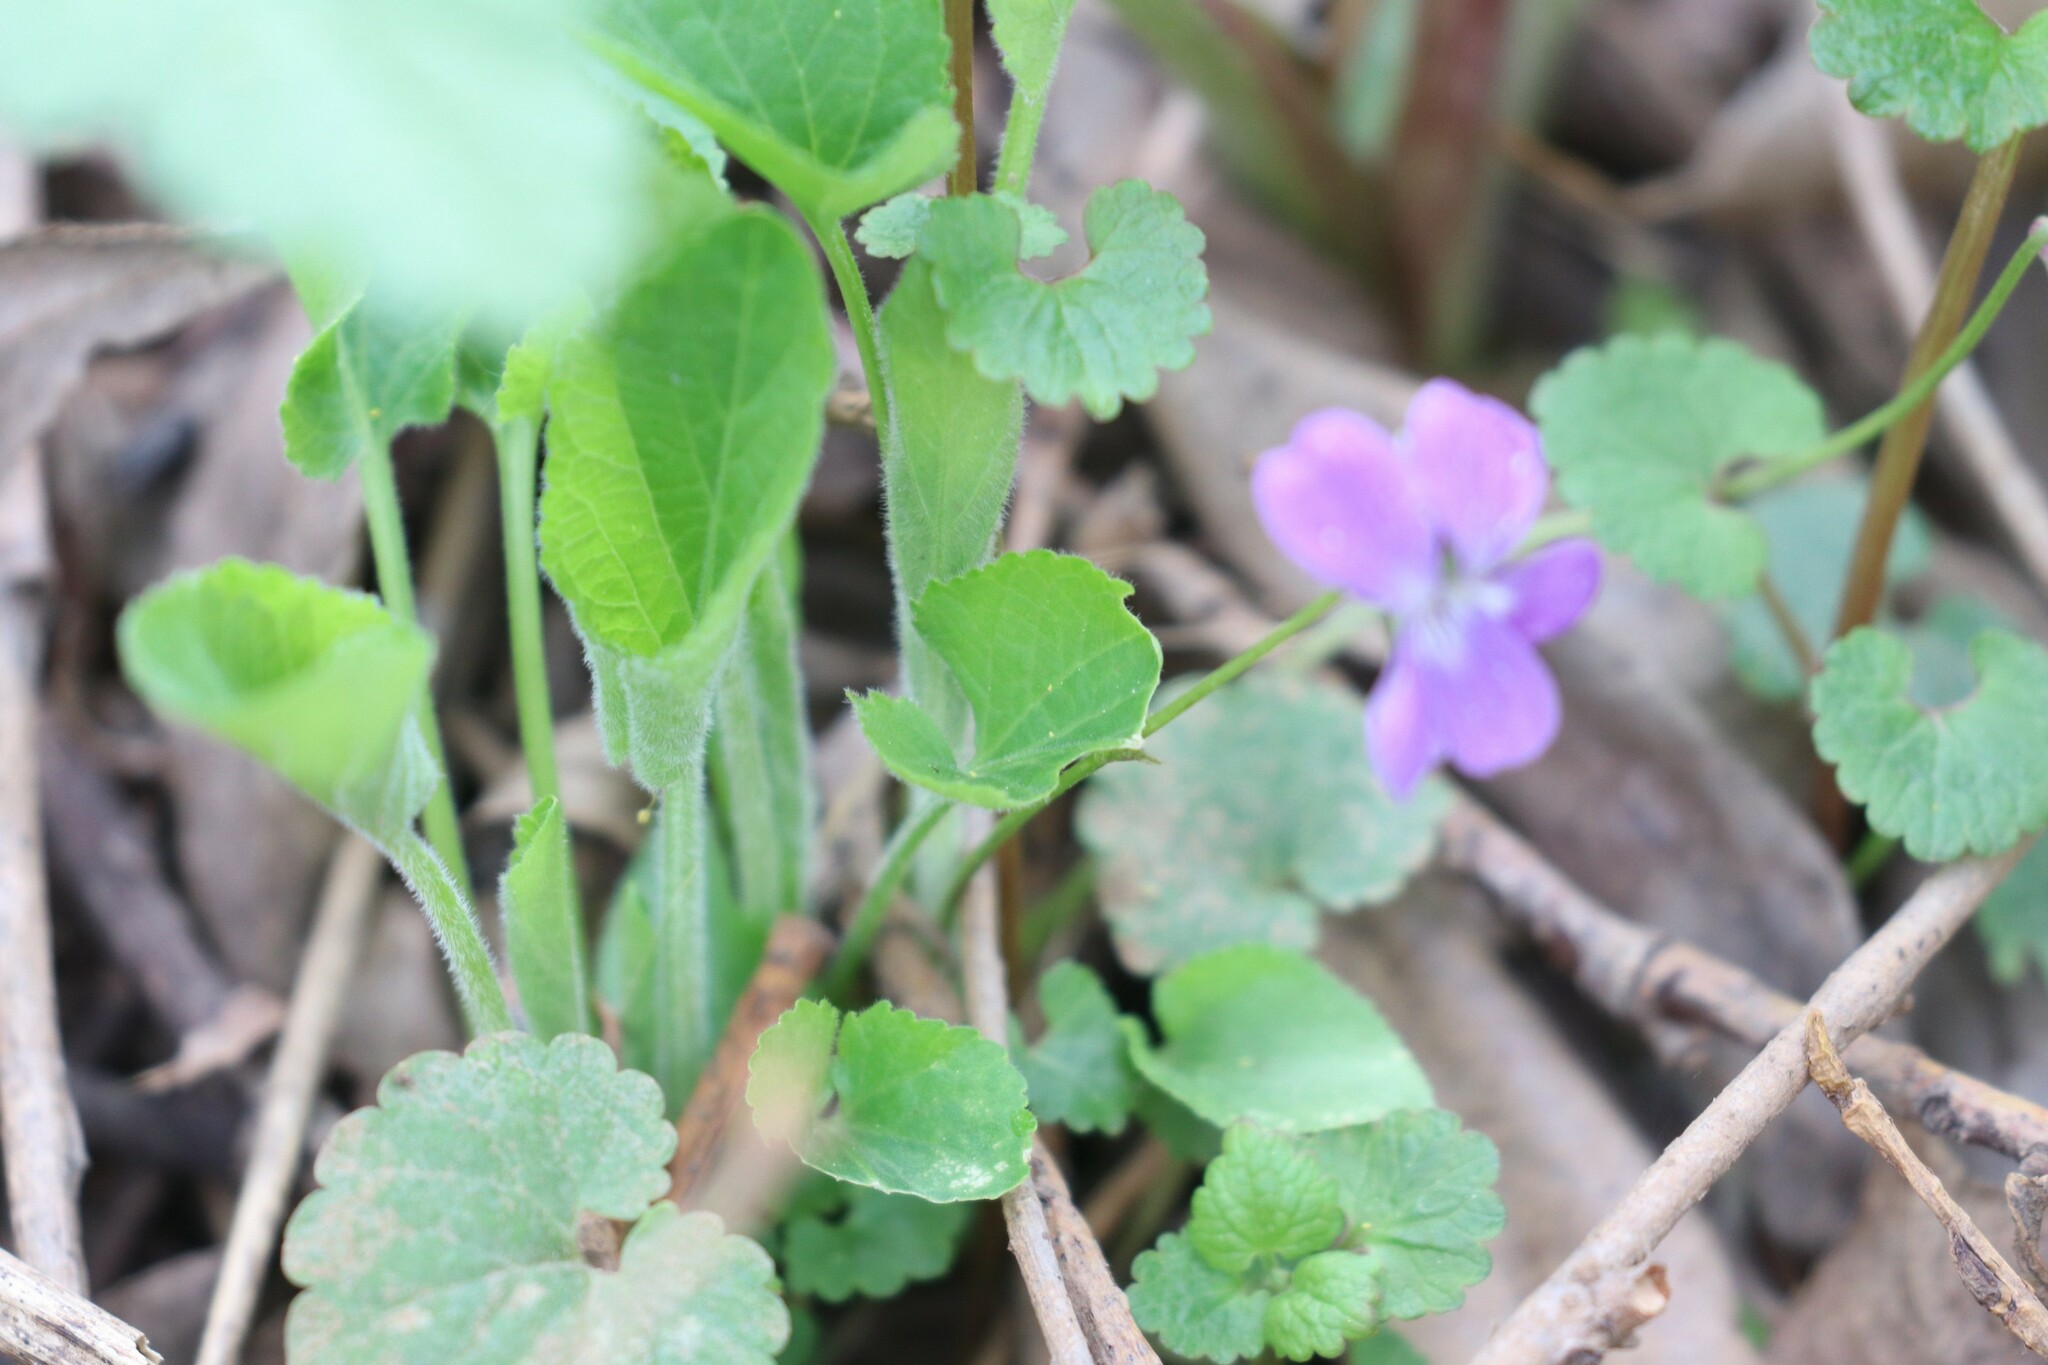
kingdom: Plantae
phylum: Tracheophyta
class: Magnoliopsida
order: Malpighiales
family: Violaceae
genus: Viola
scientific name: Viola hirta
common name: Hairy violet
